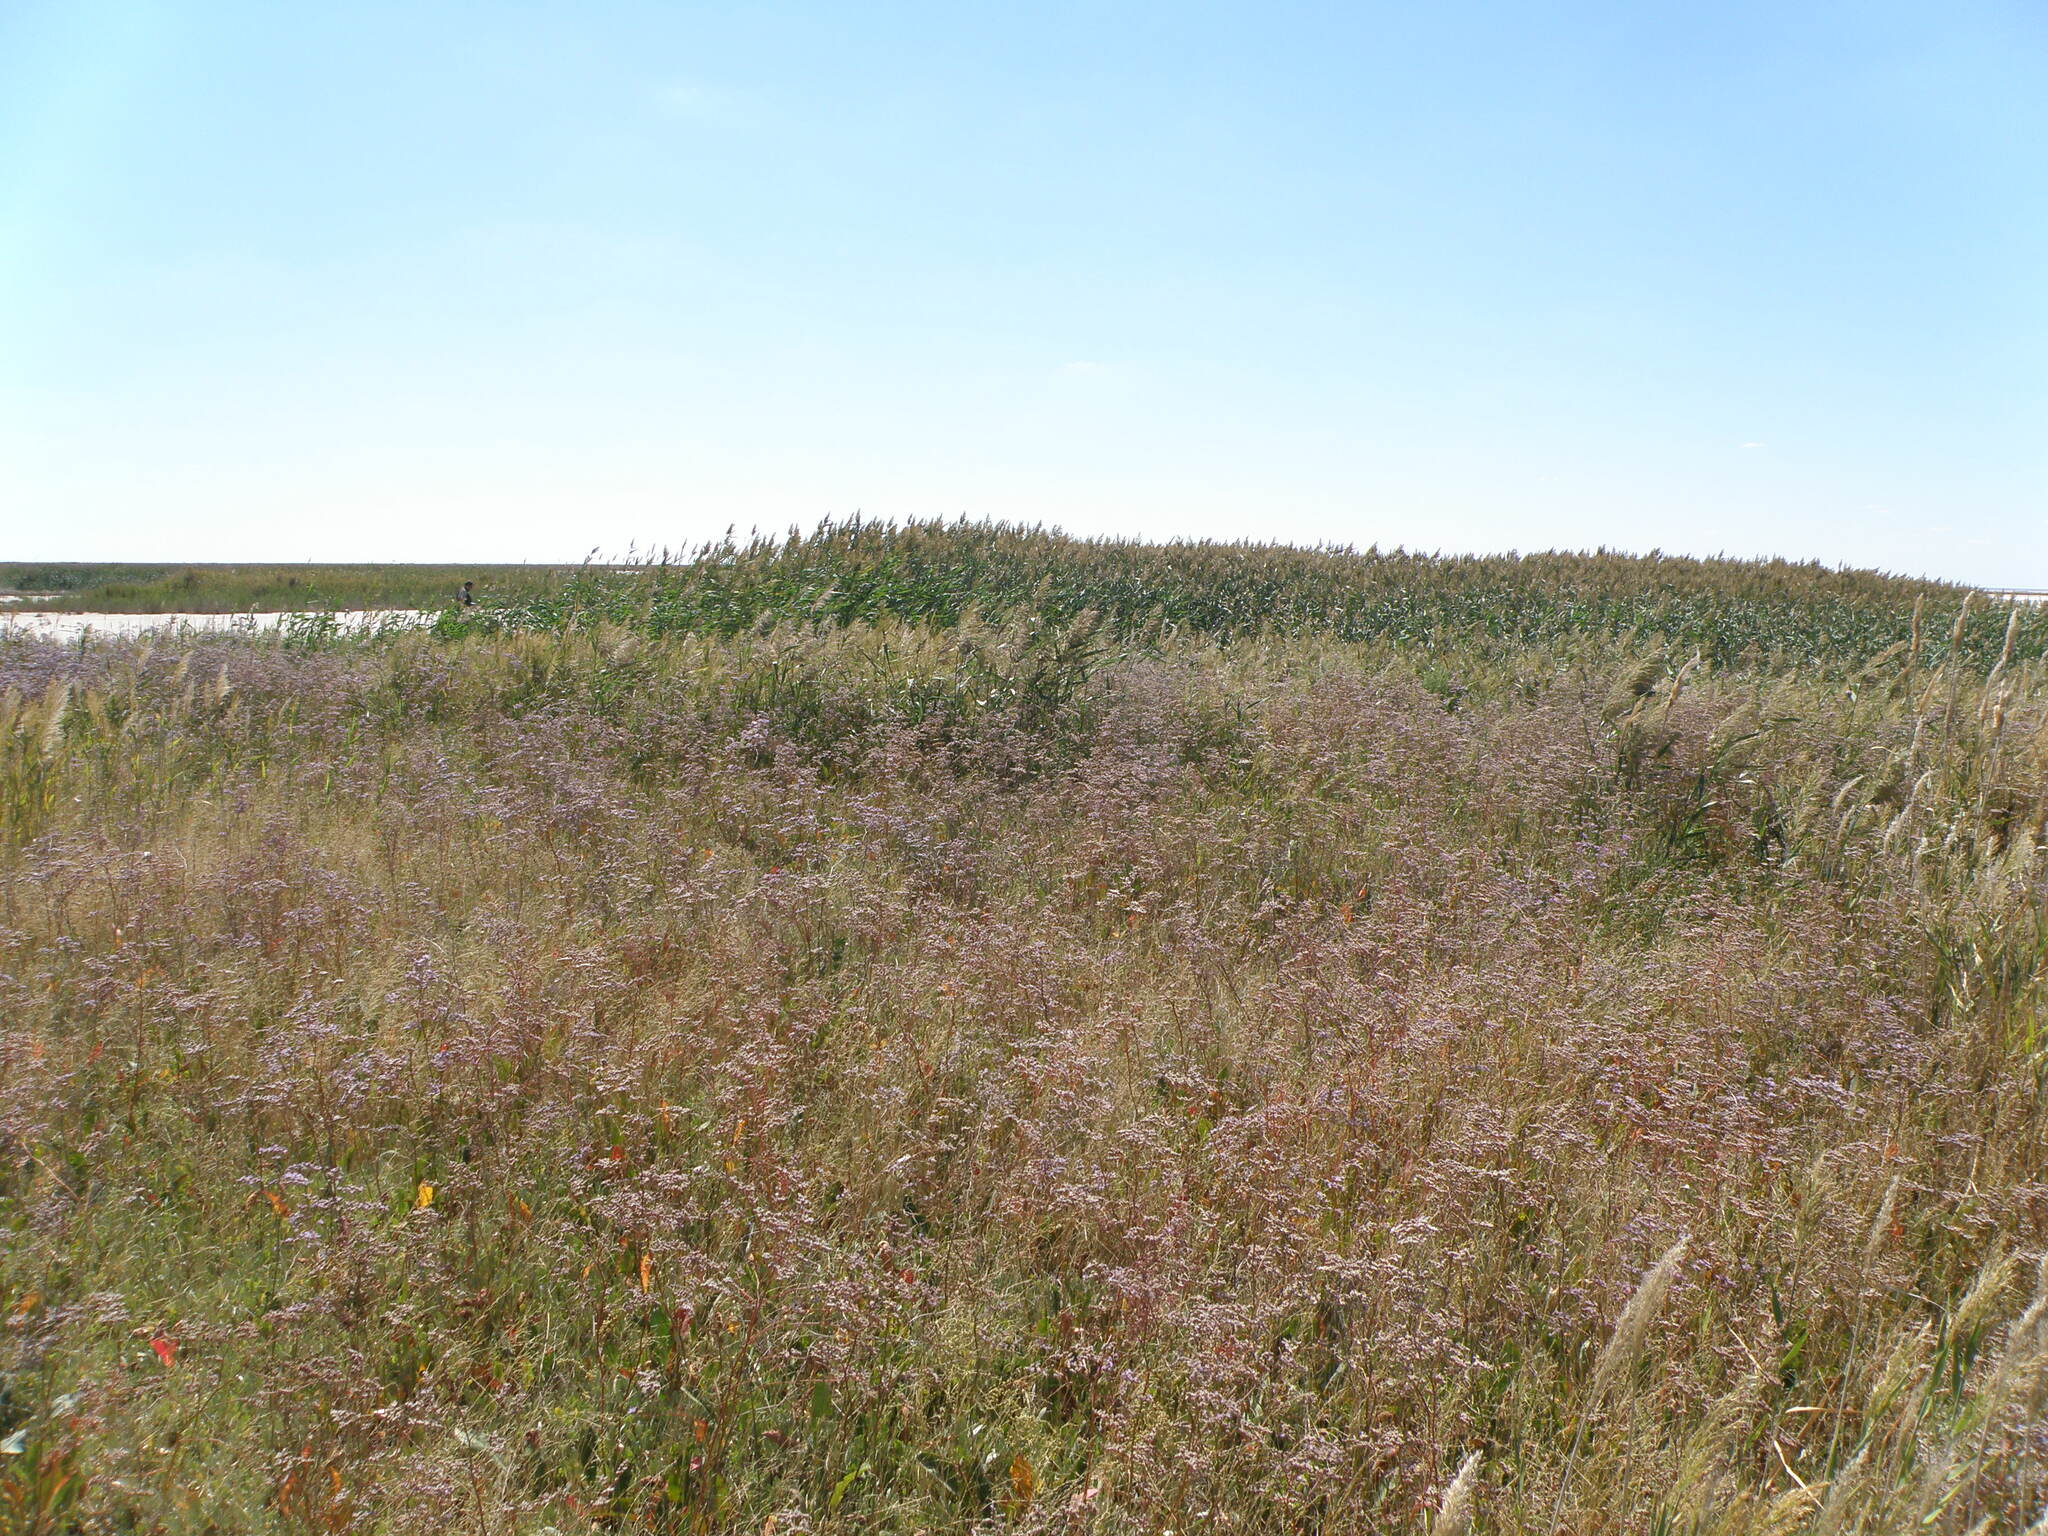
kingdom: Plantae
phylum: Tracheophyta
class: Magnoliopsida
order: Caryophyllales
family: Plumbaginaceae
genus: Limonium
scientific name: Limonium gmelini
